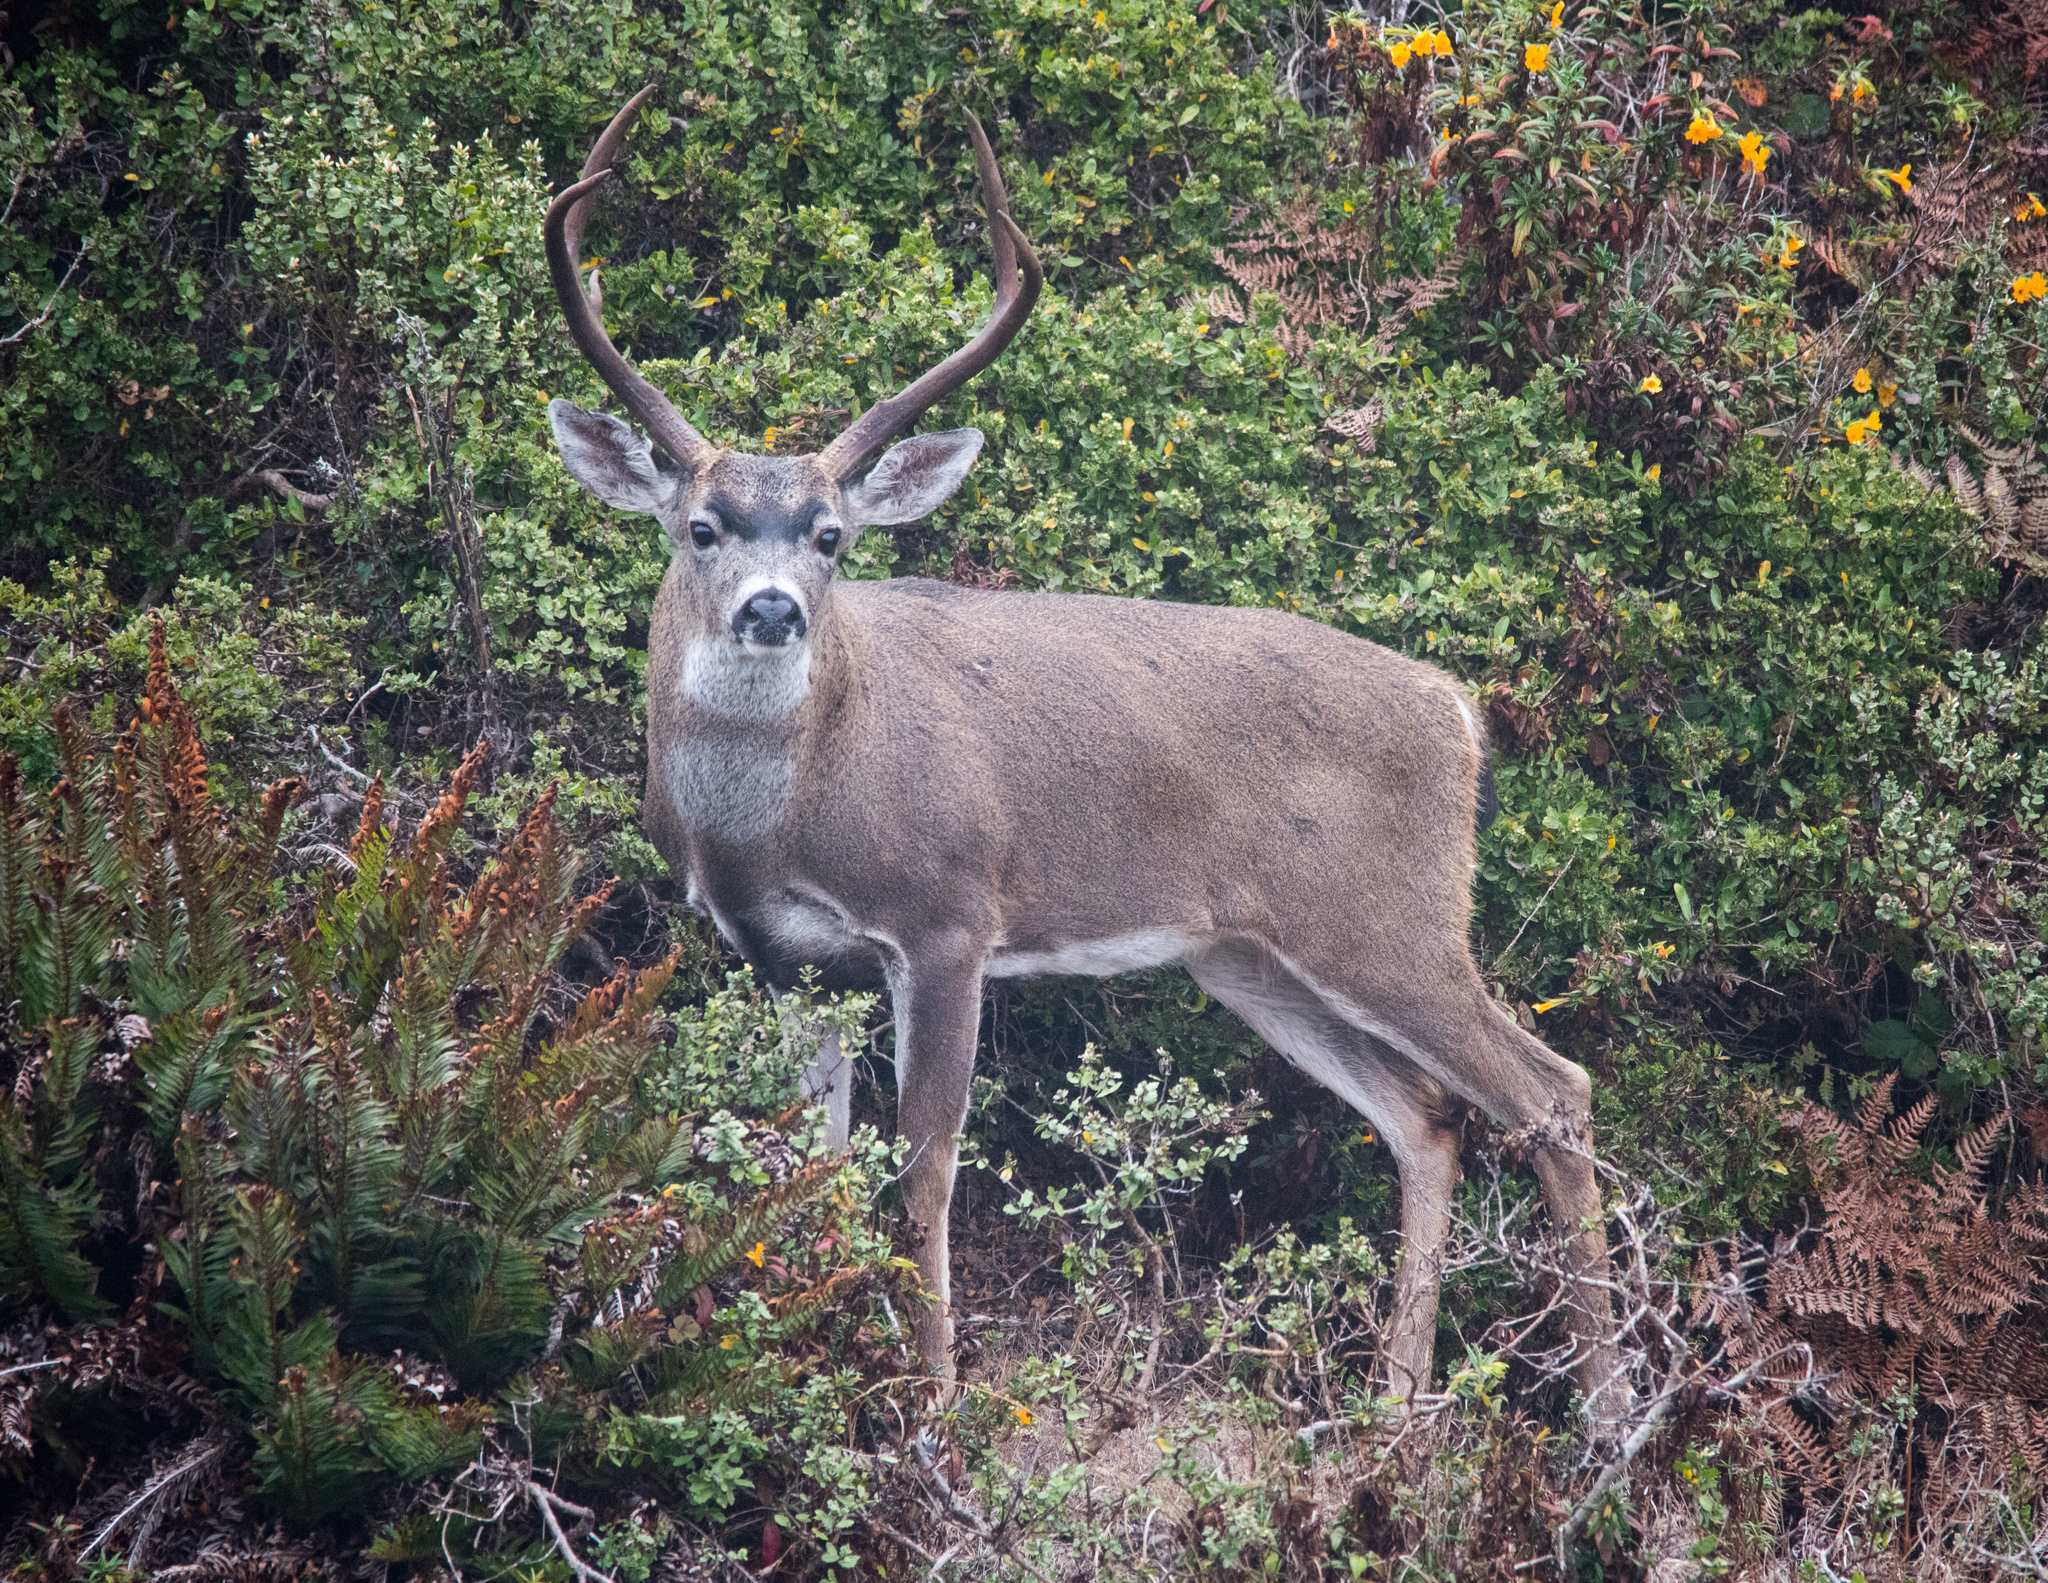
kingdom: Animalia
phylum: Chordata
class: Mammalia
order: Artiodactyla
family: Cervidae
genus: Odocoileus
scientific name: Odocoileus hemionus
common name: Mule deer
